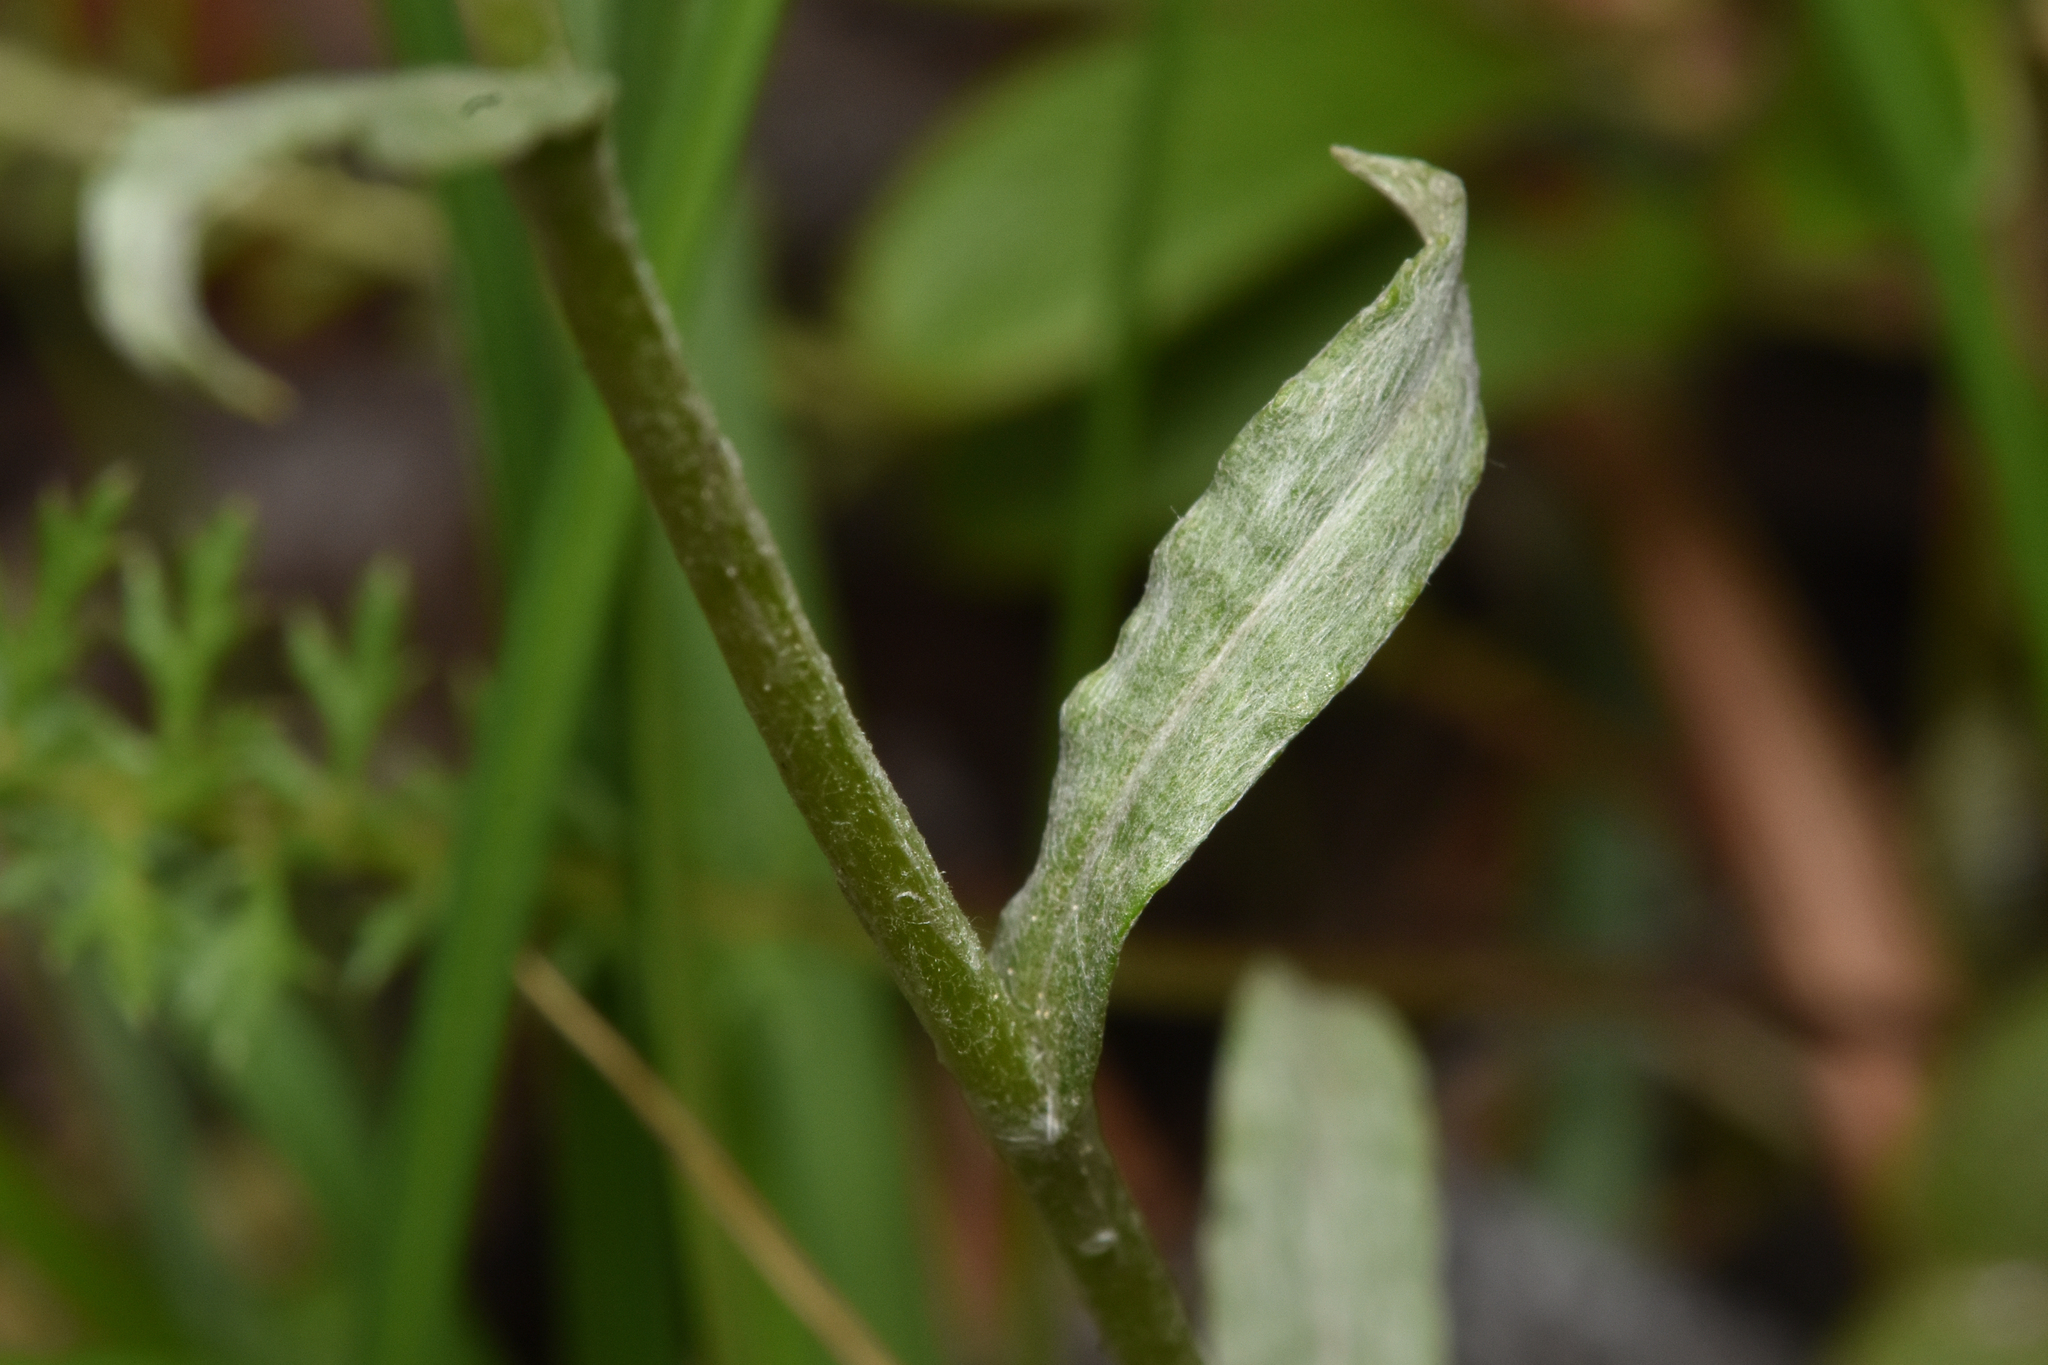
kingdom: Plantae
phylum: Tracheophyta
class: Magnoliopsida
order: Asterales
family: Asteraceae
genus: Antennaria
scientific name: Antennaria rosea
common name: Rosy pussytoes
